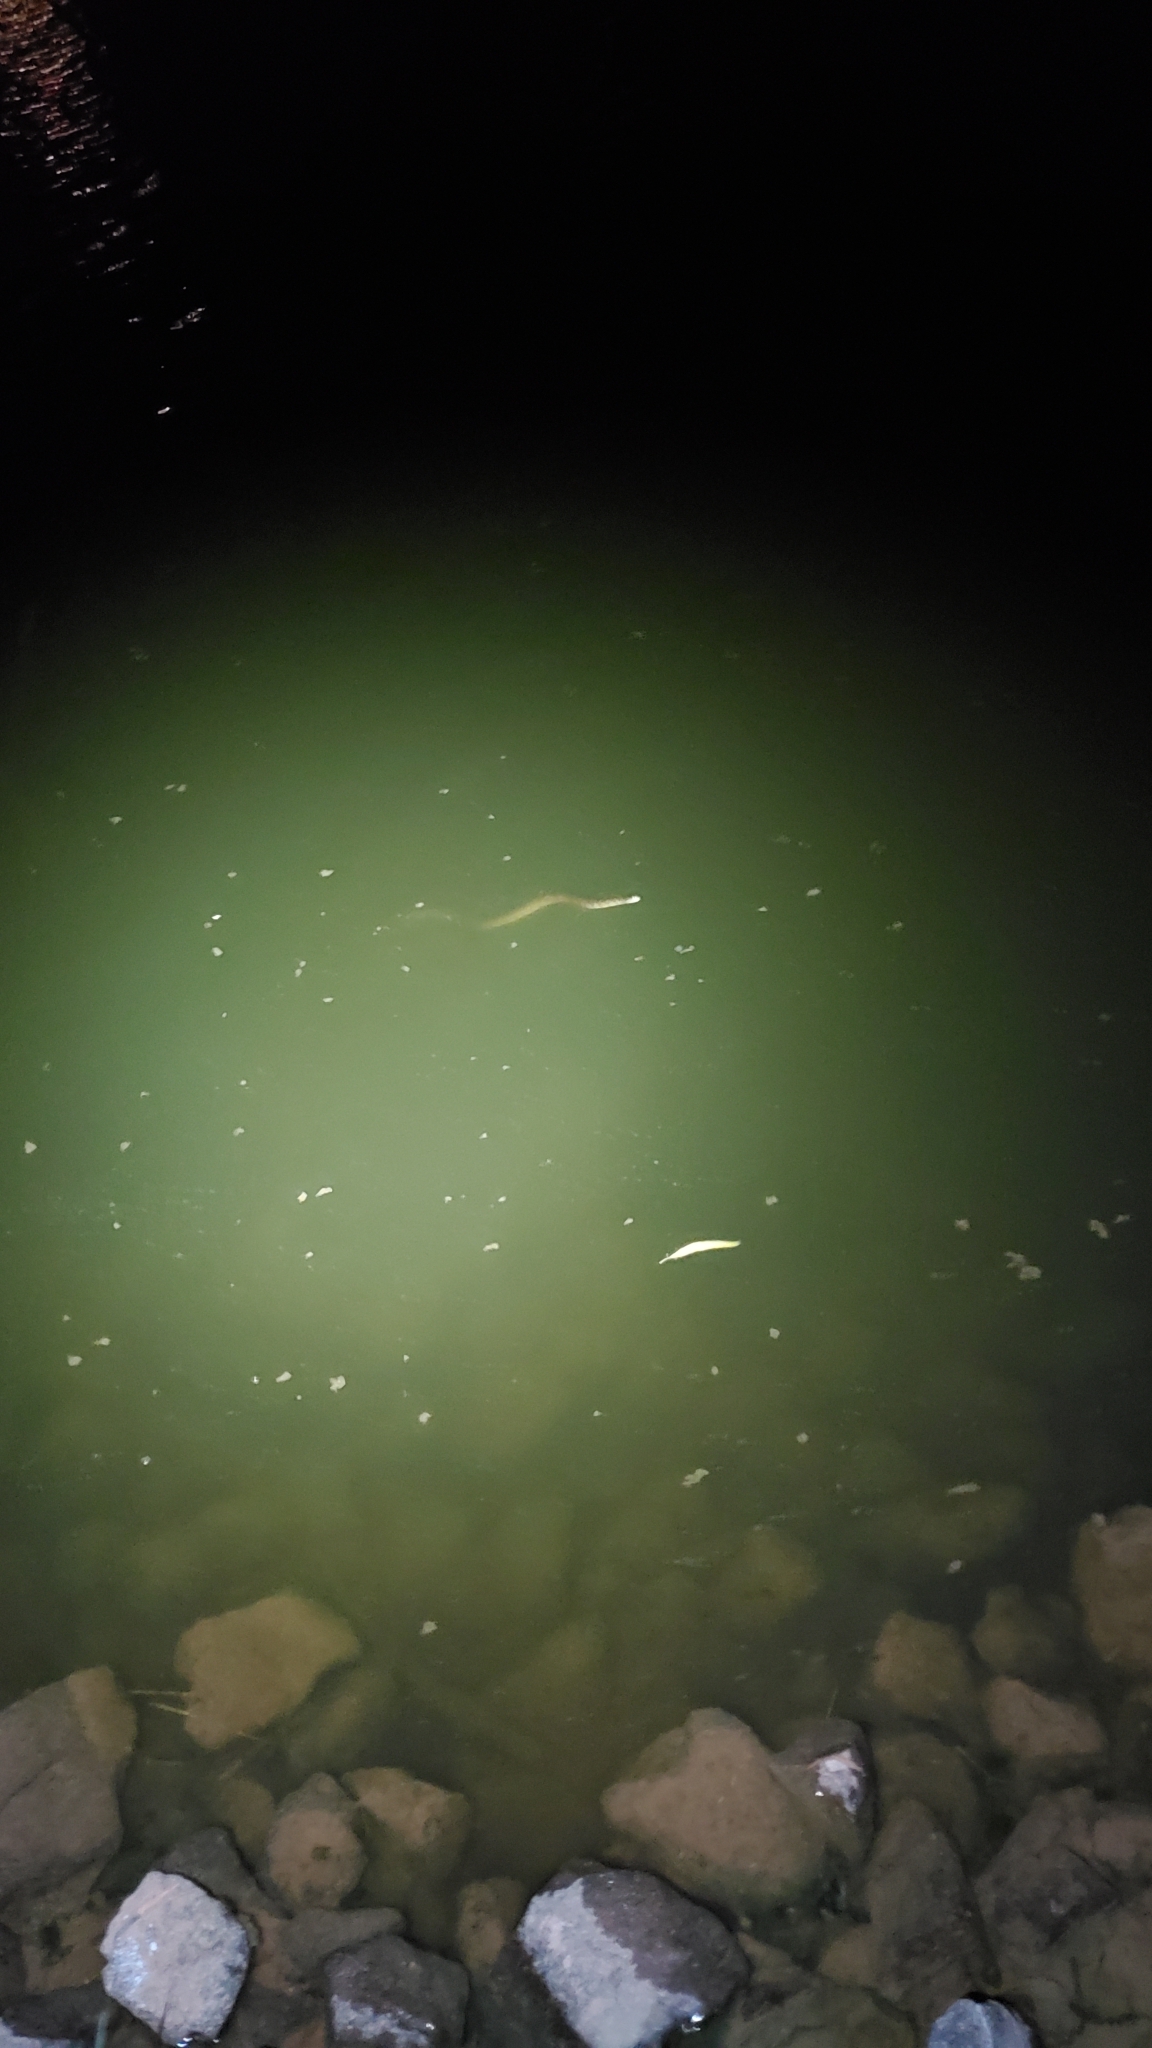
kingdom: Animalia
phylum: Chordata
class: Squamata
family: Colubridae
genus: Nerodia
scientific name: Nerodia rhombifer
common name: Diamondback water snake
